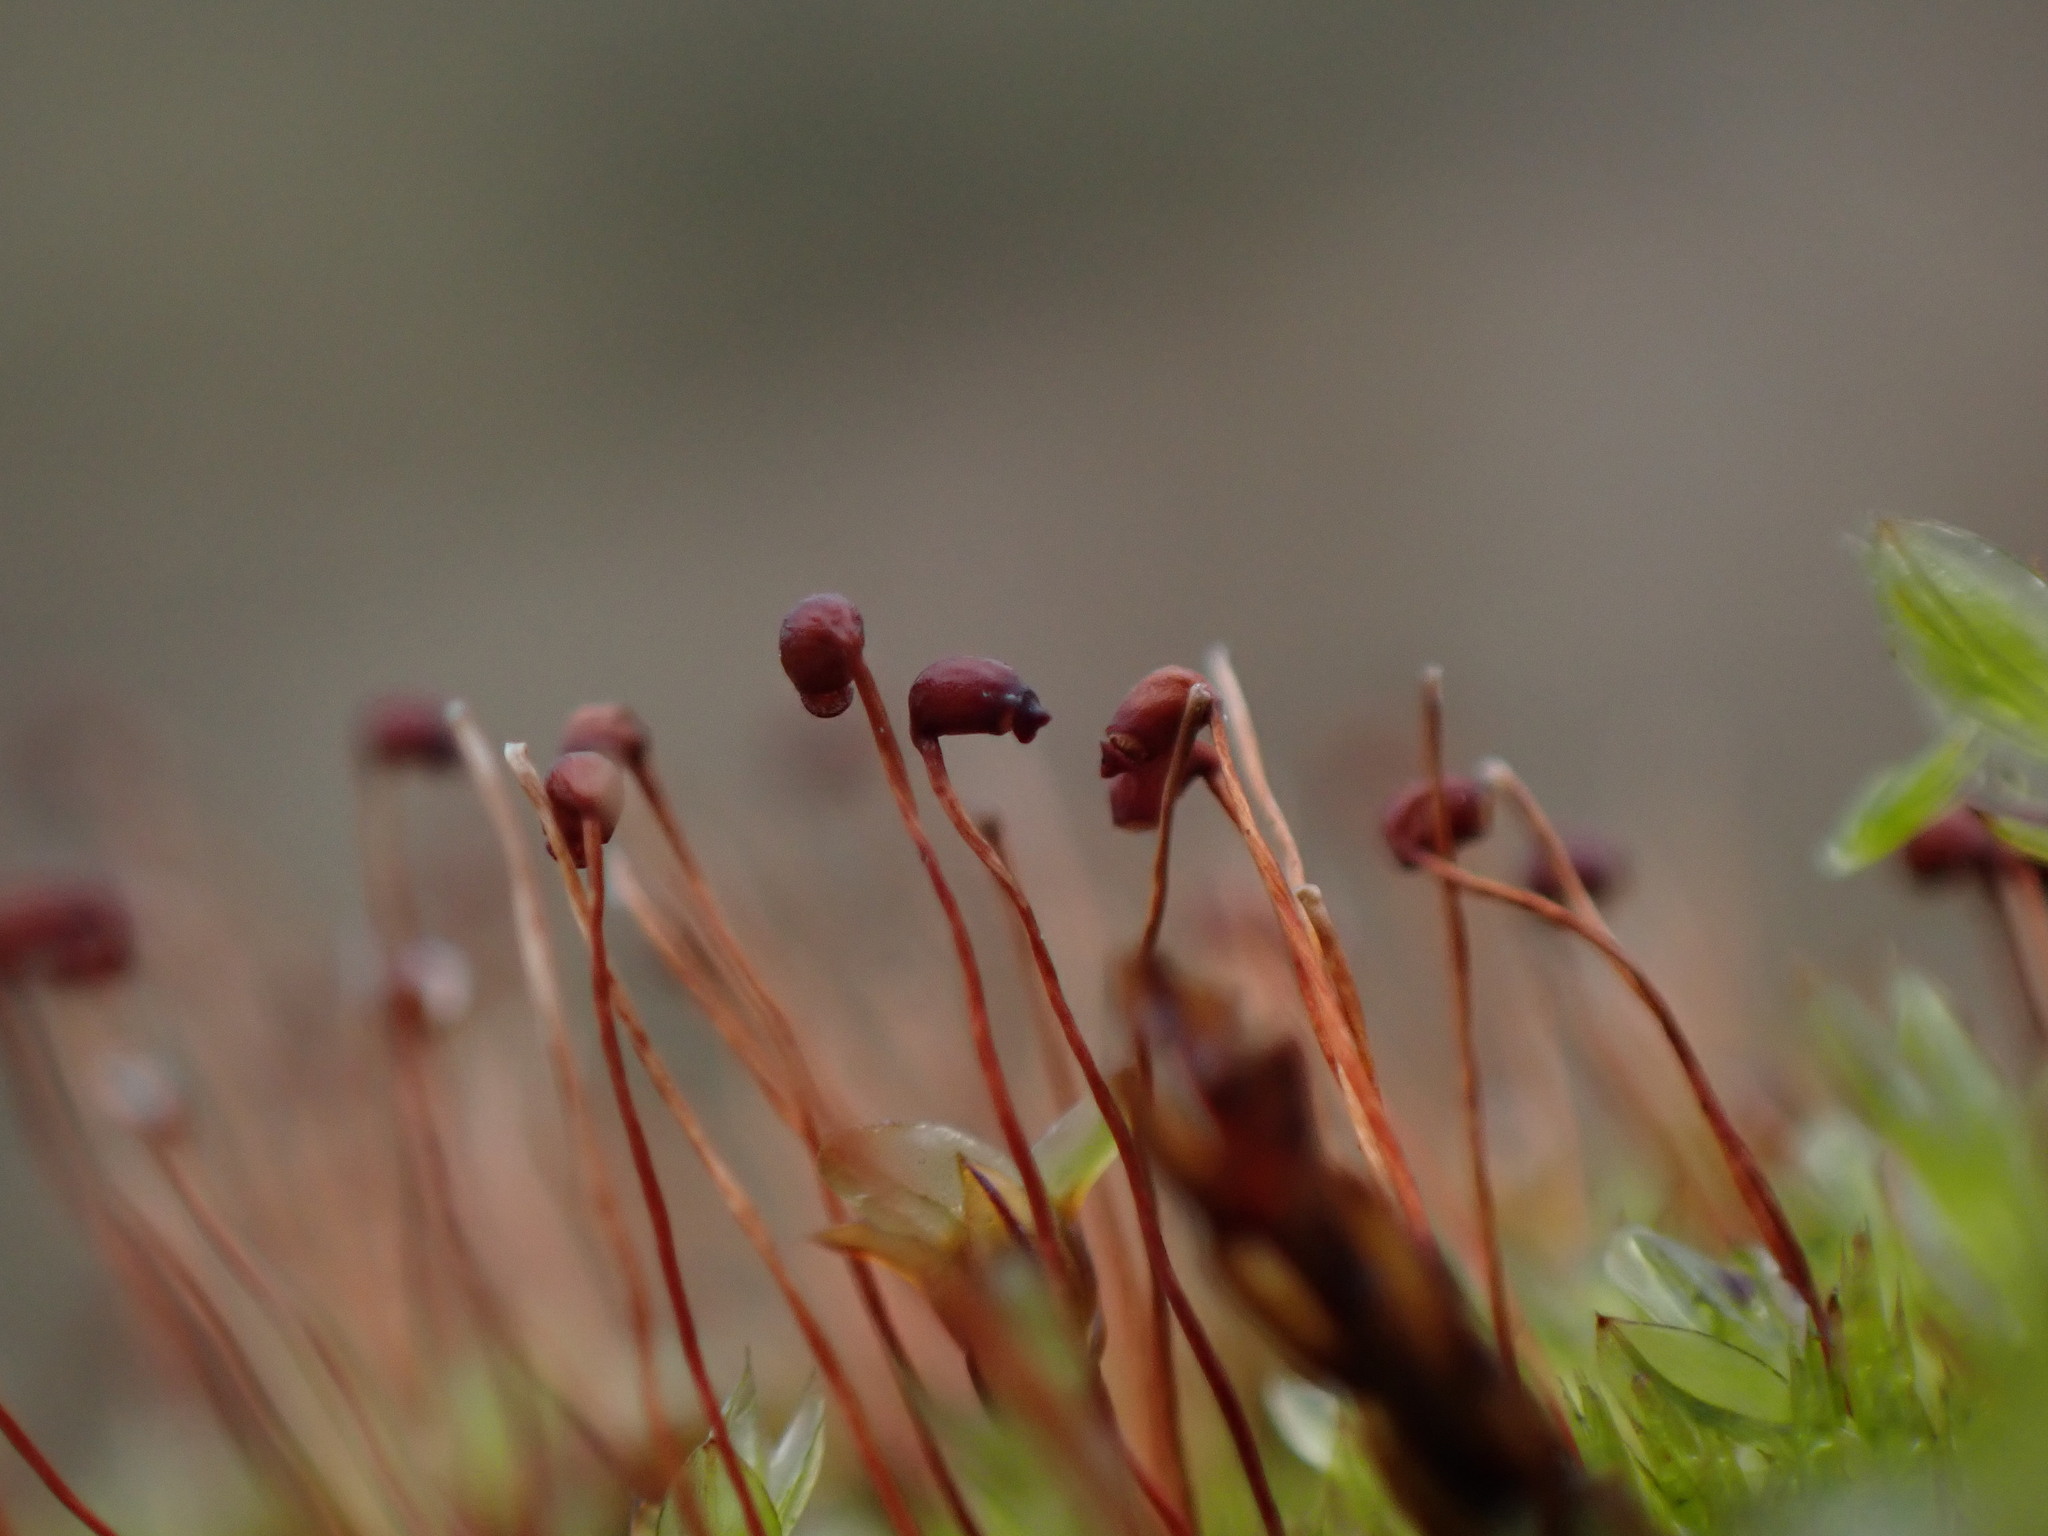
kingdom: Plantae
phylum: Bryophyta
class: Bryopsida
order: Catoscopiales
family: Catoscopiaceae
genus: Catoscopium
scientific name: Catoscopium nigritum
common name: Black golf club moss
